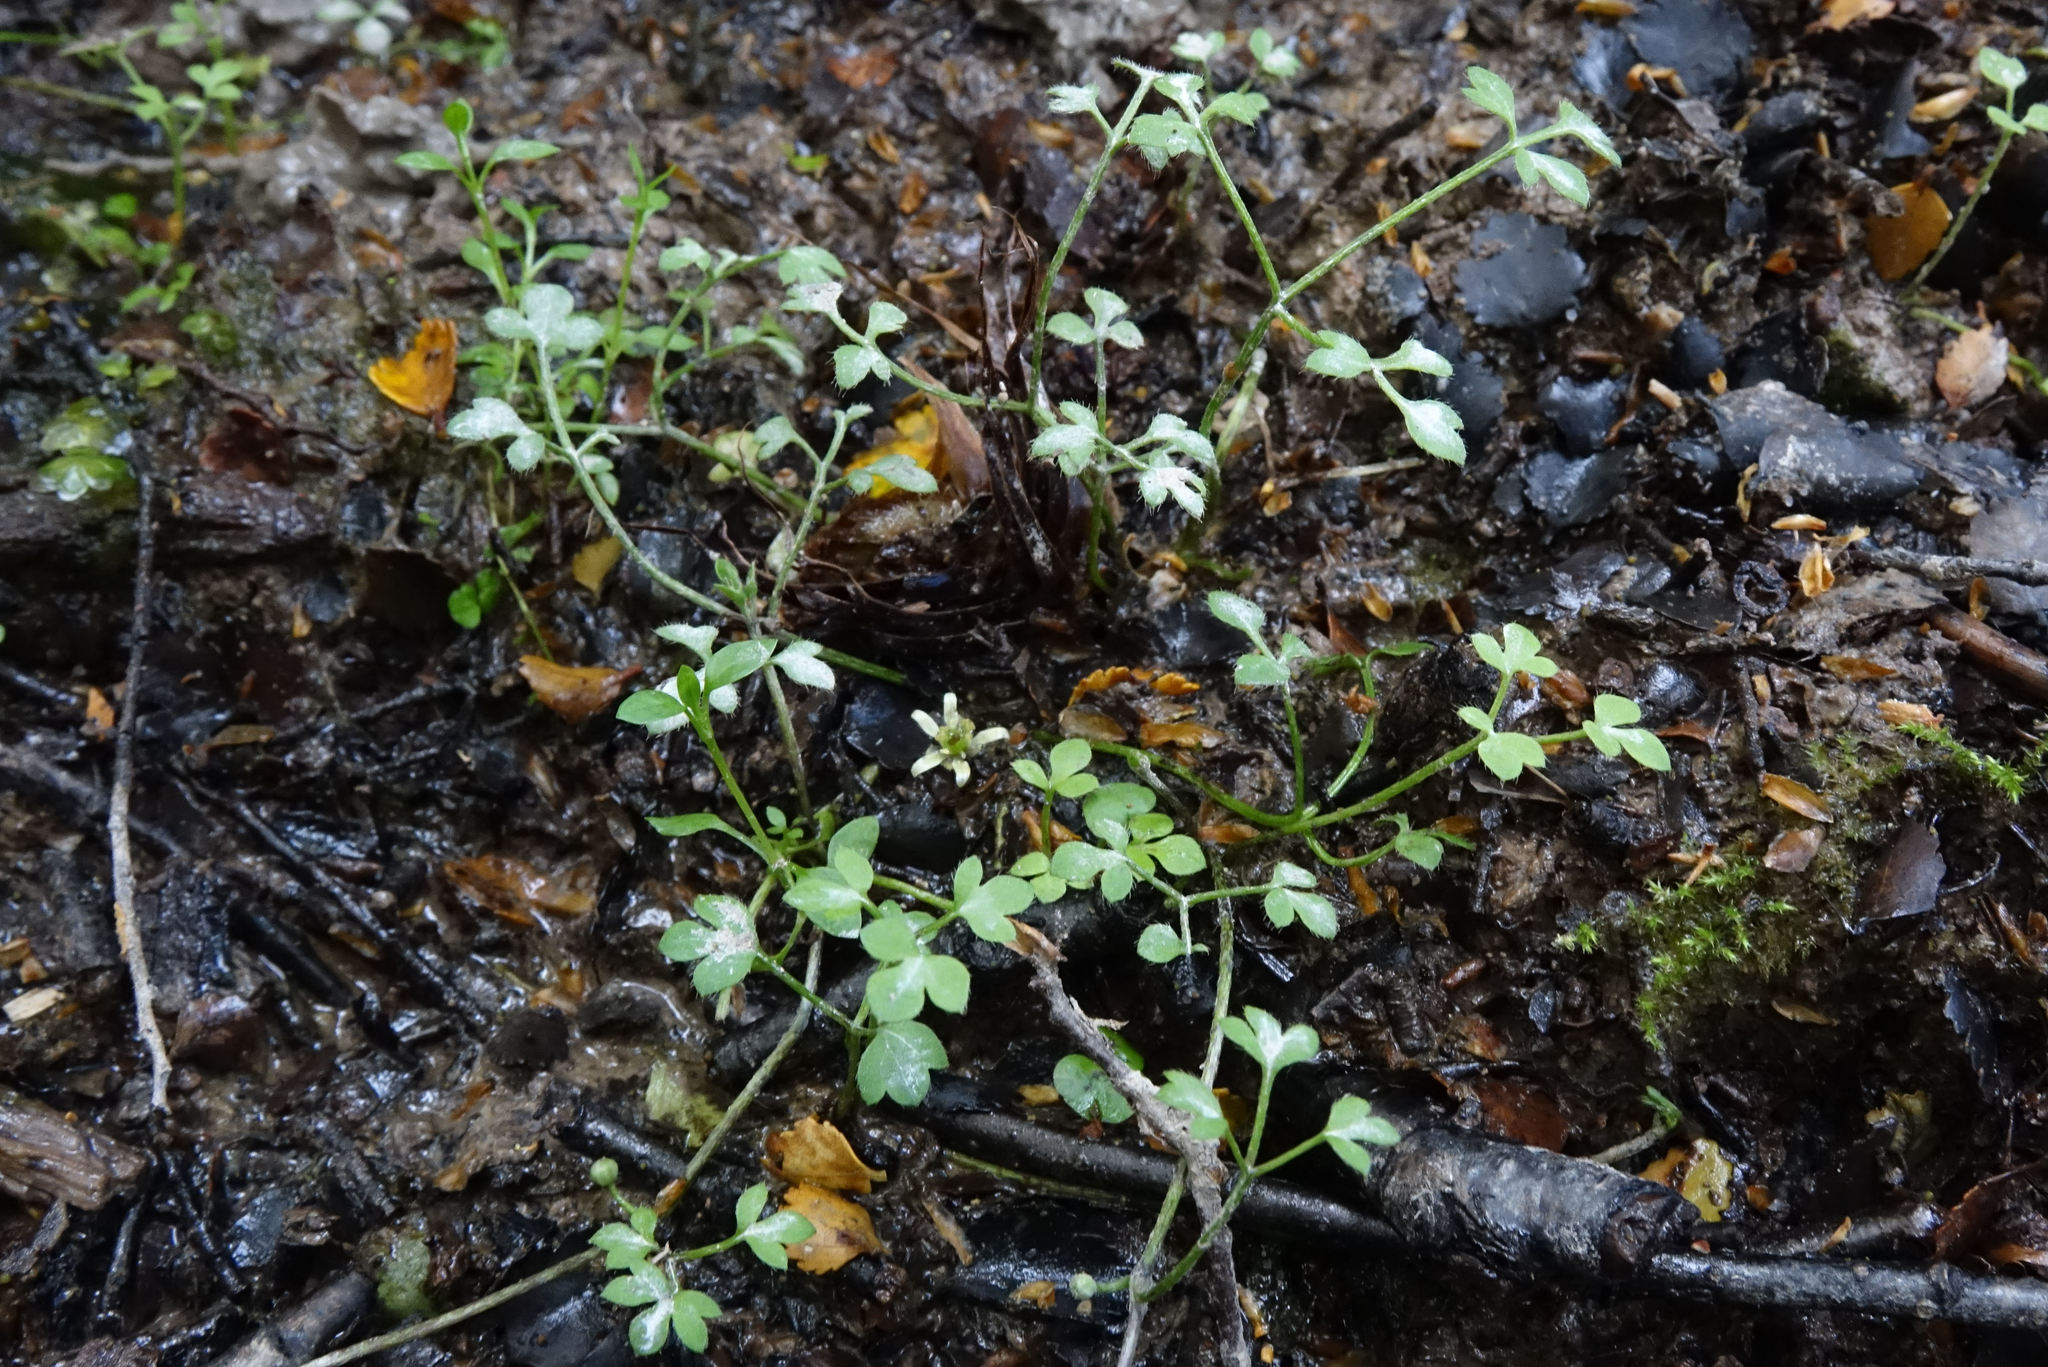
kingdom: Plantae
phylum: Tracheophyta
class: Magnoliopsida
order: Ranunculales
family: Ranunculaceae
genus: Ranunculus
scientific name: Ranunculus ternatifolius
